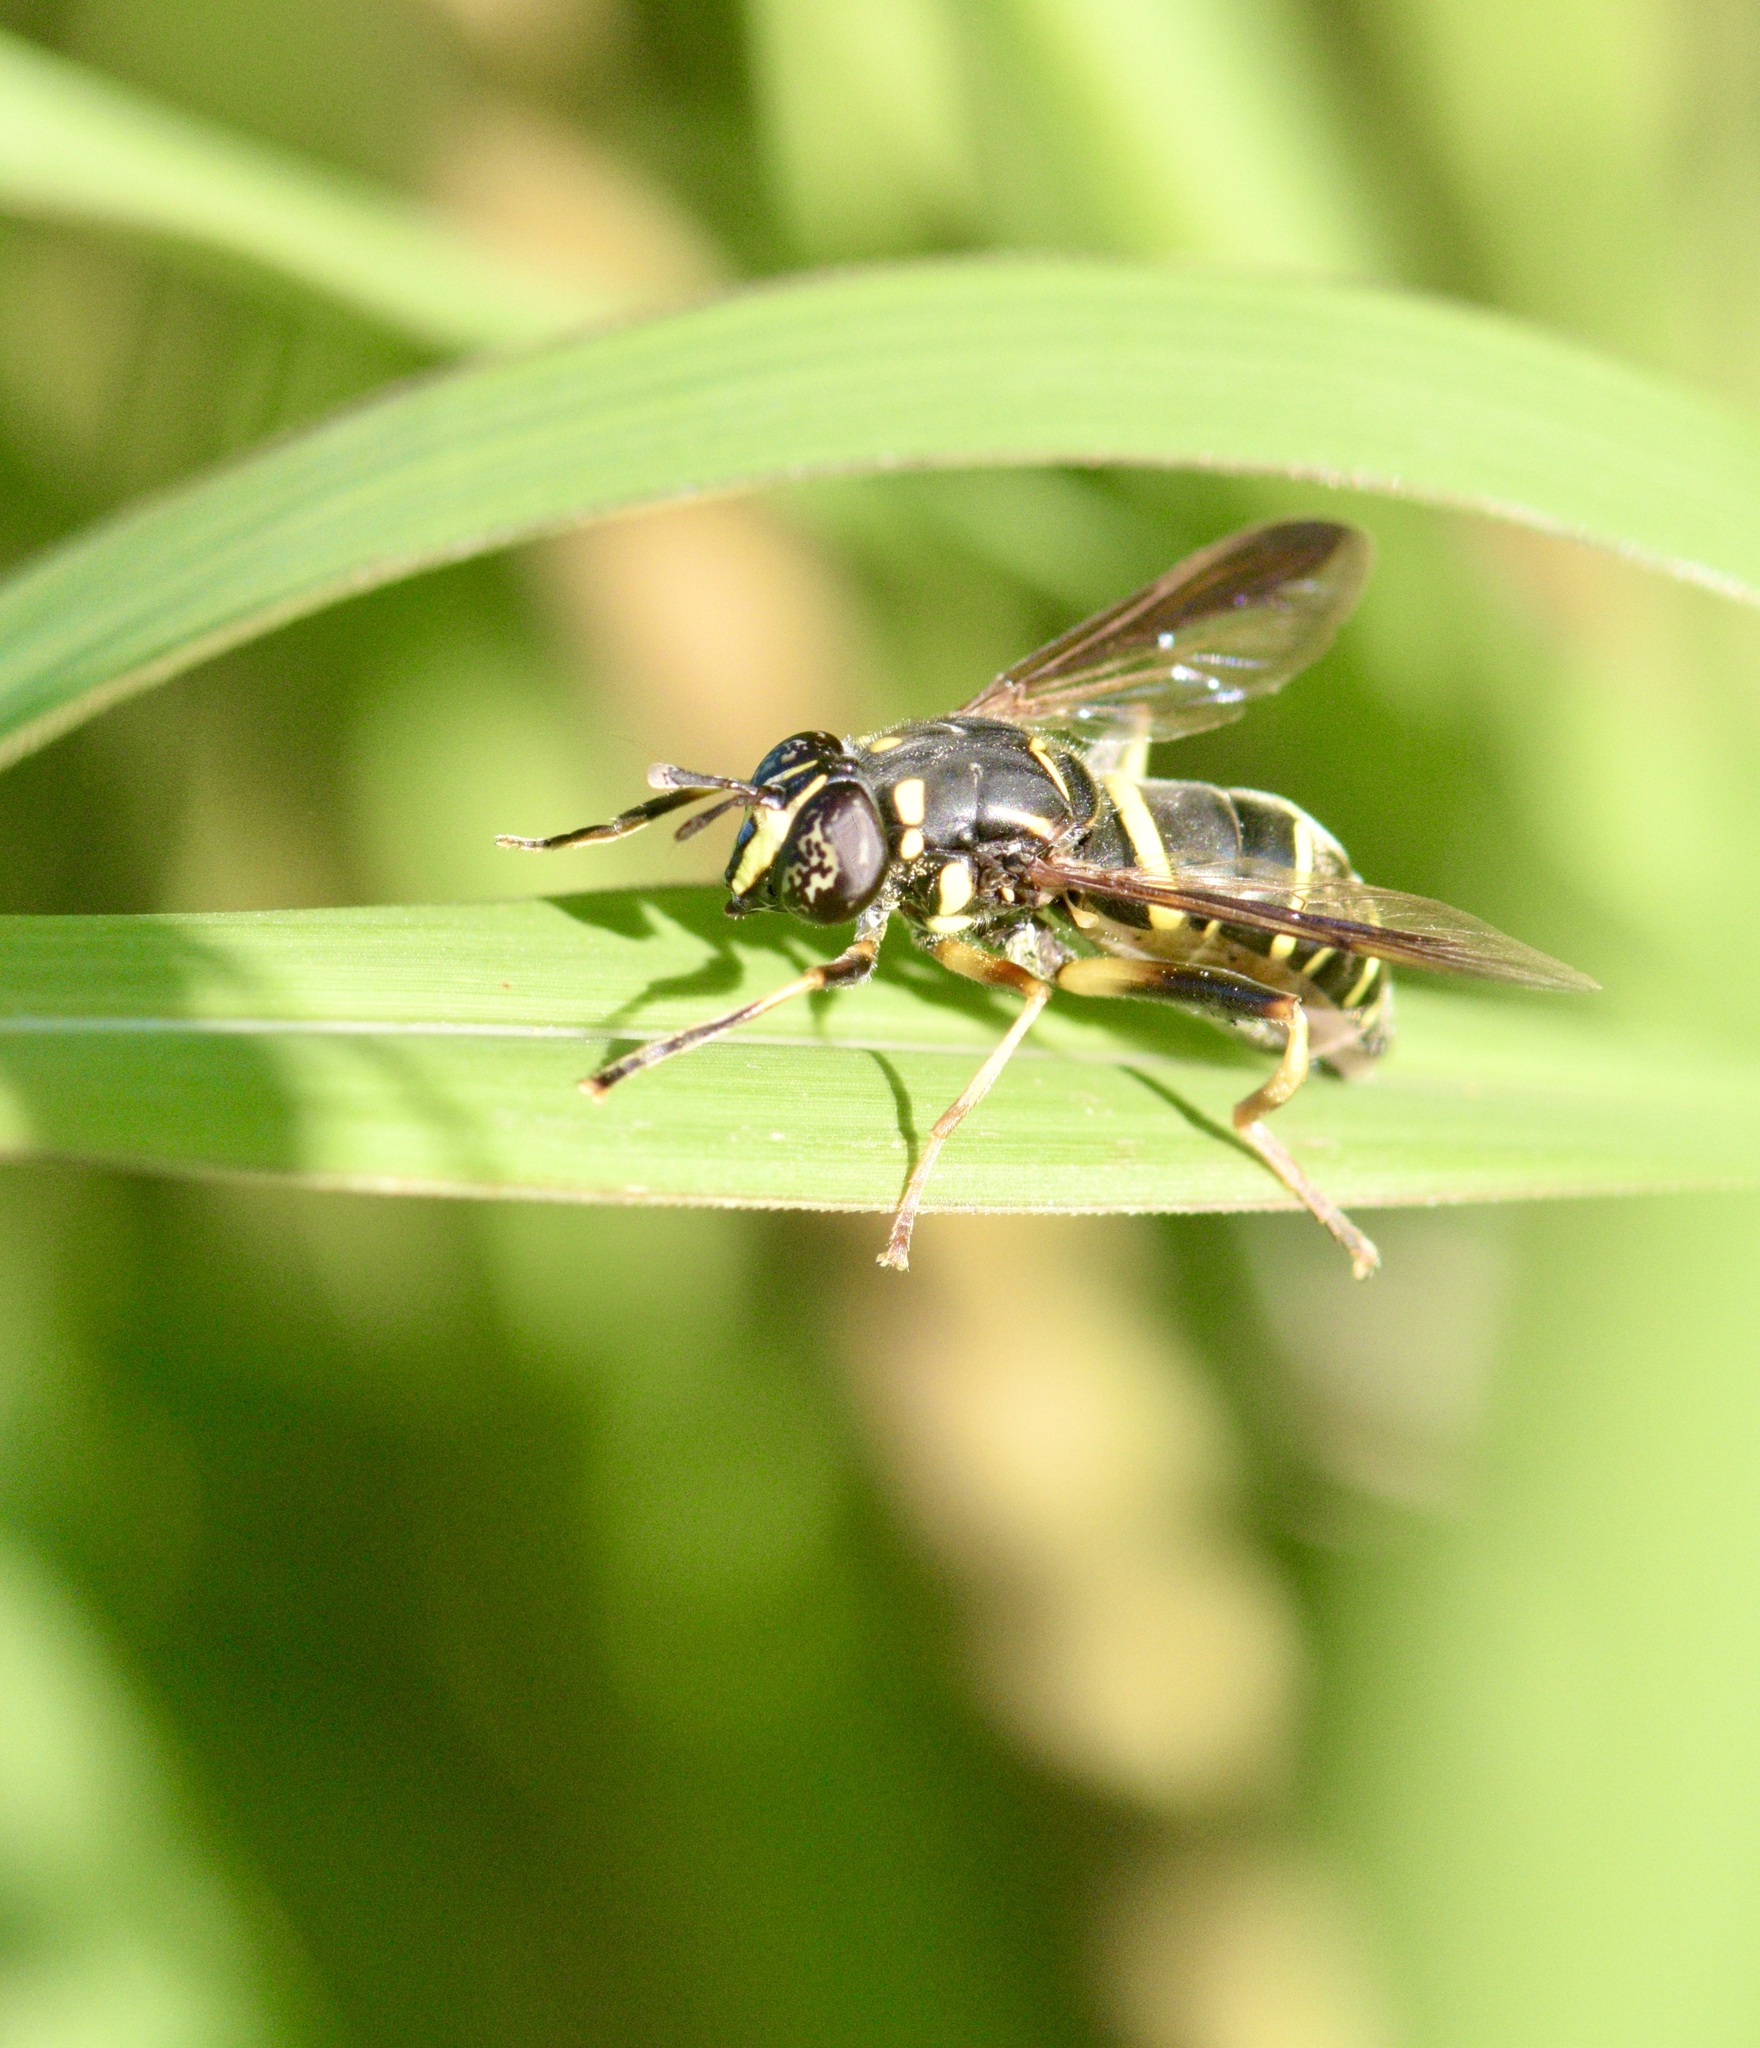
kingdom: Animalia
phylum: Arthropoda
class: Insecta
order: Diptera
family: Syrphidae
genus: Spilomyia
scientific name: Spilomyia sayi
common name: Four-lined hornet fly
